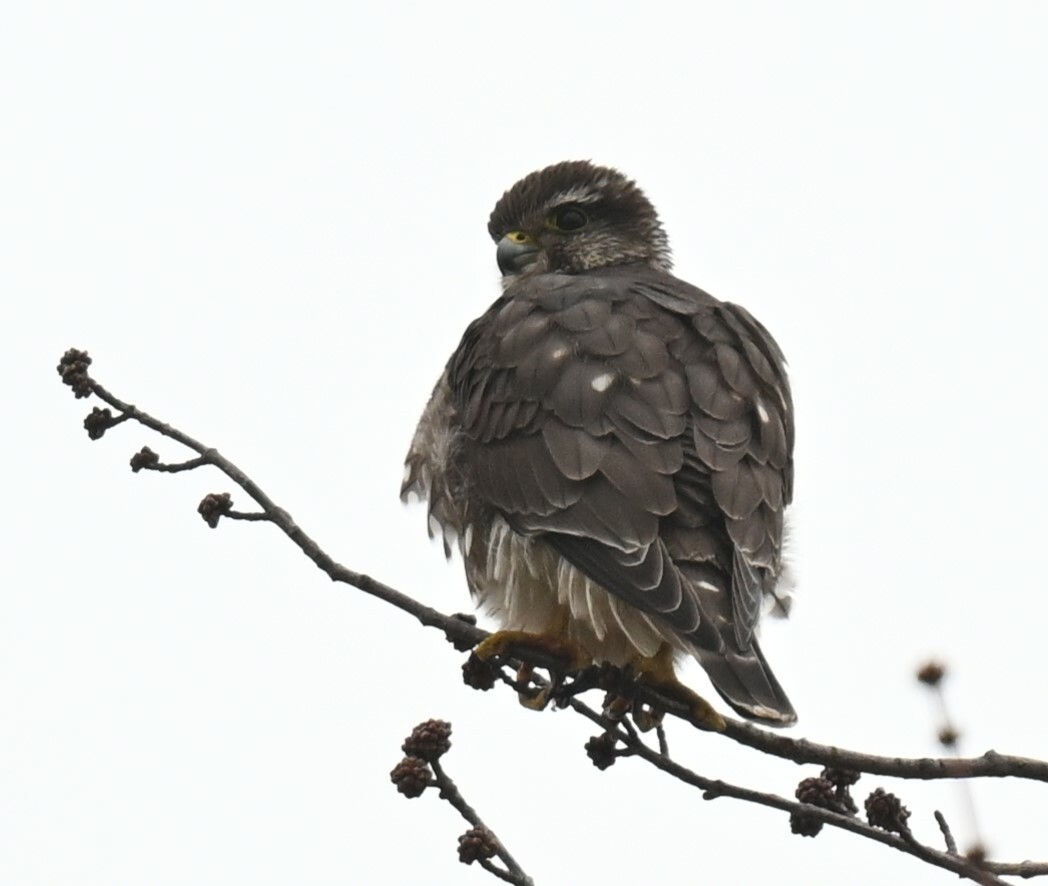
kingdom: Animalia
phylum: Chordata
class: Aves
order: Falconiformes
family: Falconidae
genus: Falco
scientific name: Falco columbarius
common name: Merlin
